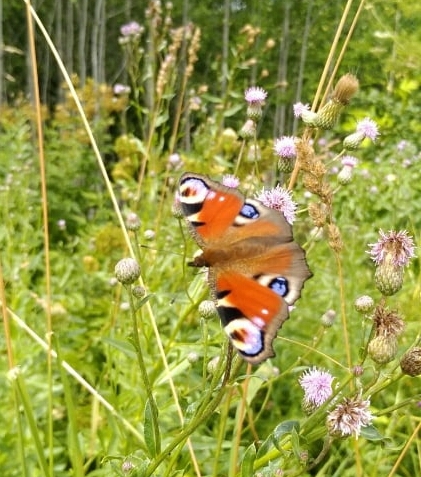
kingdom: Animalia
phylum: Arthropoda
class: Insecta
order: Lepidoptera
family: Nymphalidae
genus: Aglais
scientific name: Aglais io
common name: Peacock
